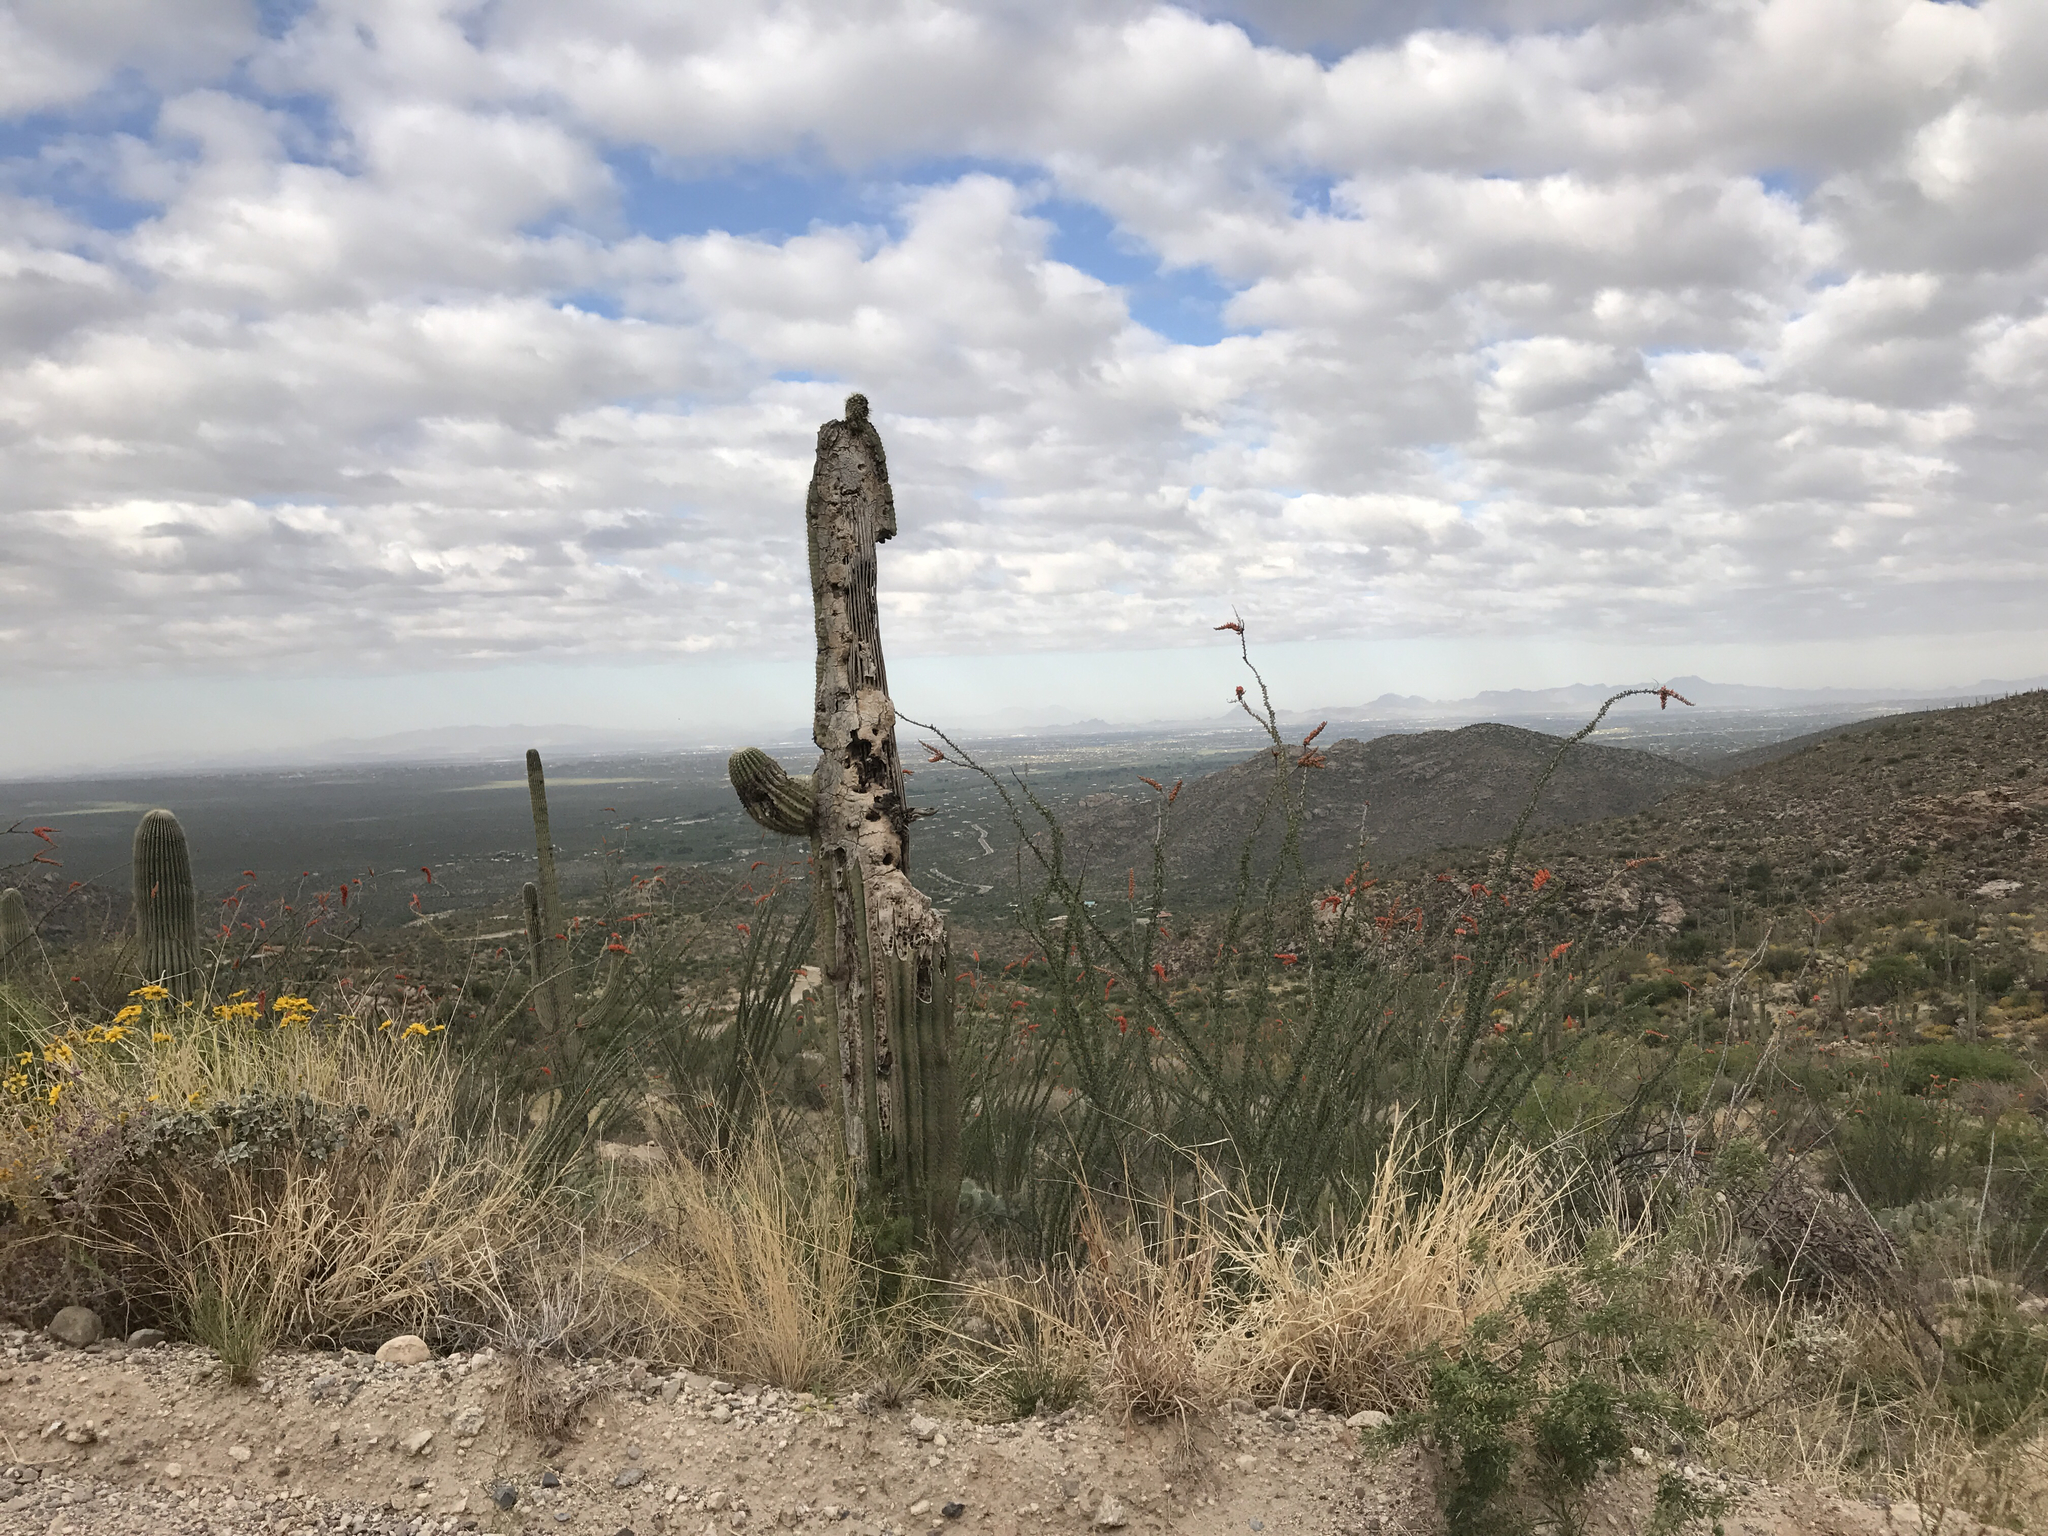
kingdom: Plantae
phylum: Tracheophyta
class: Magnoliopsida
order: Caryophyllales
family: Cactaceae
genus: Carnegiea
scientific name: Carnegiea gigantea
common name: Saguaro
